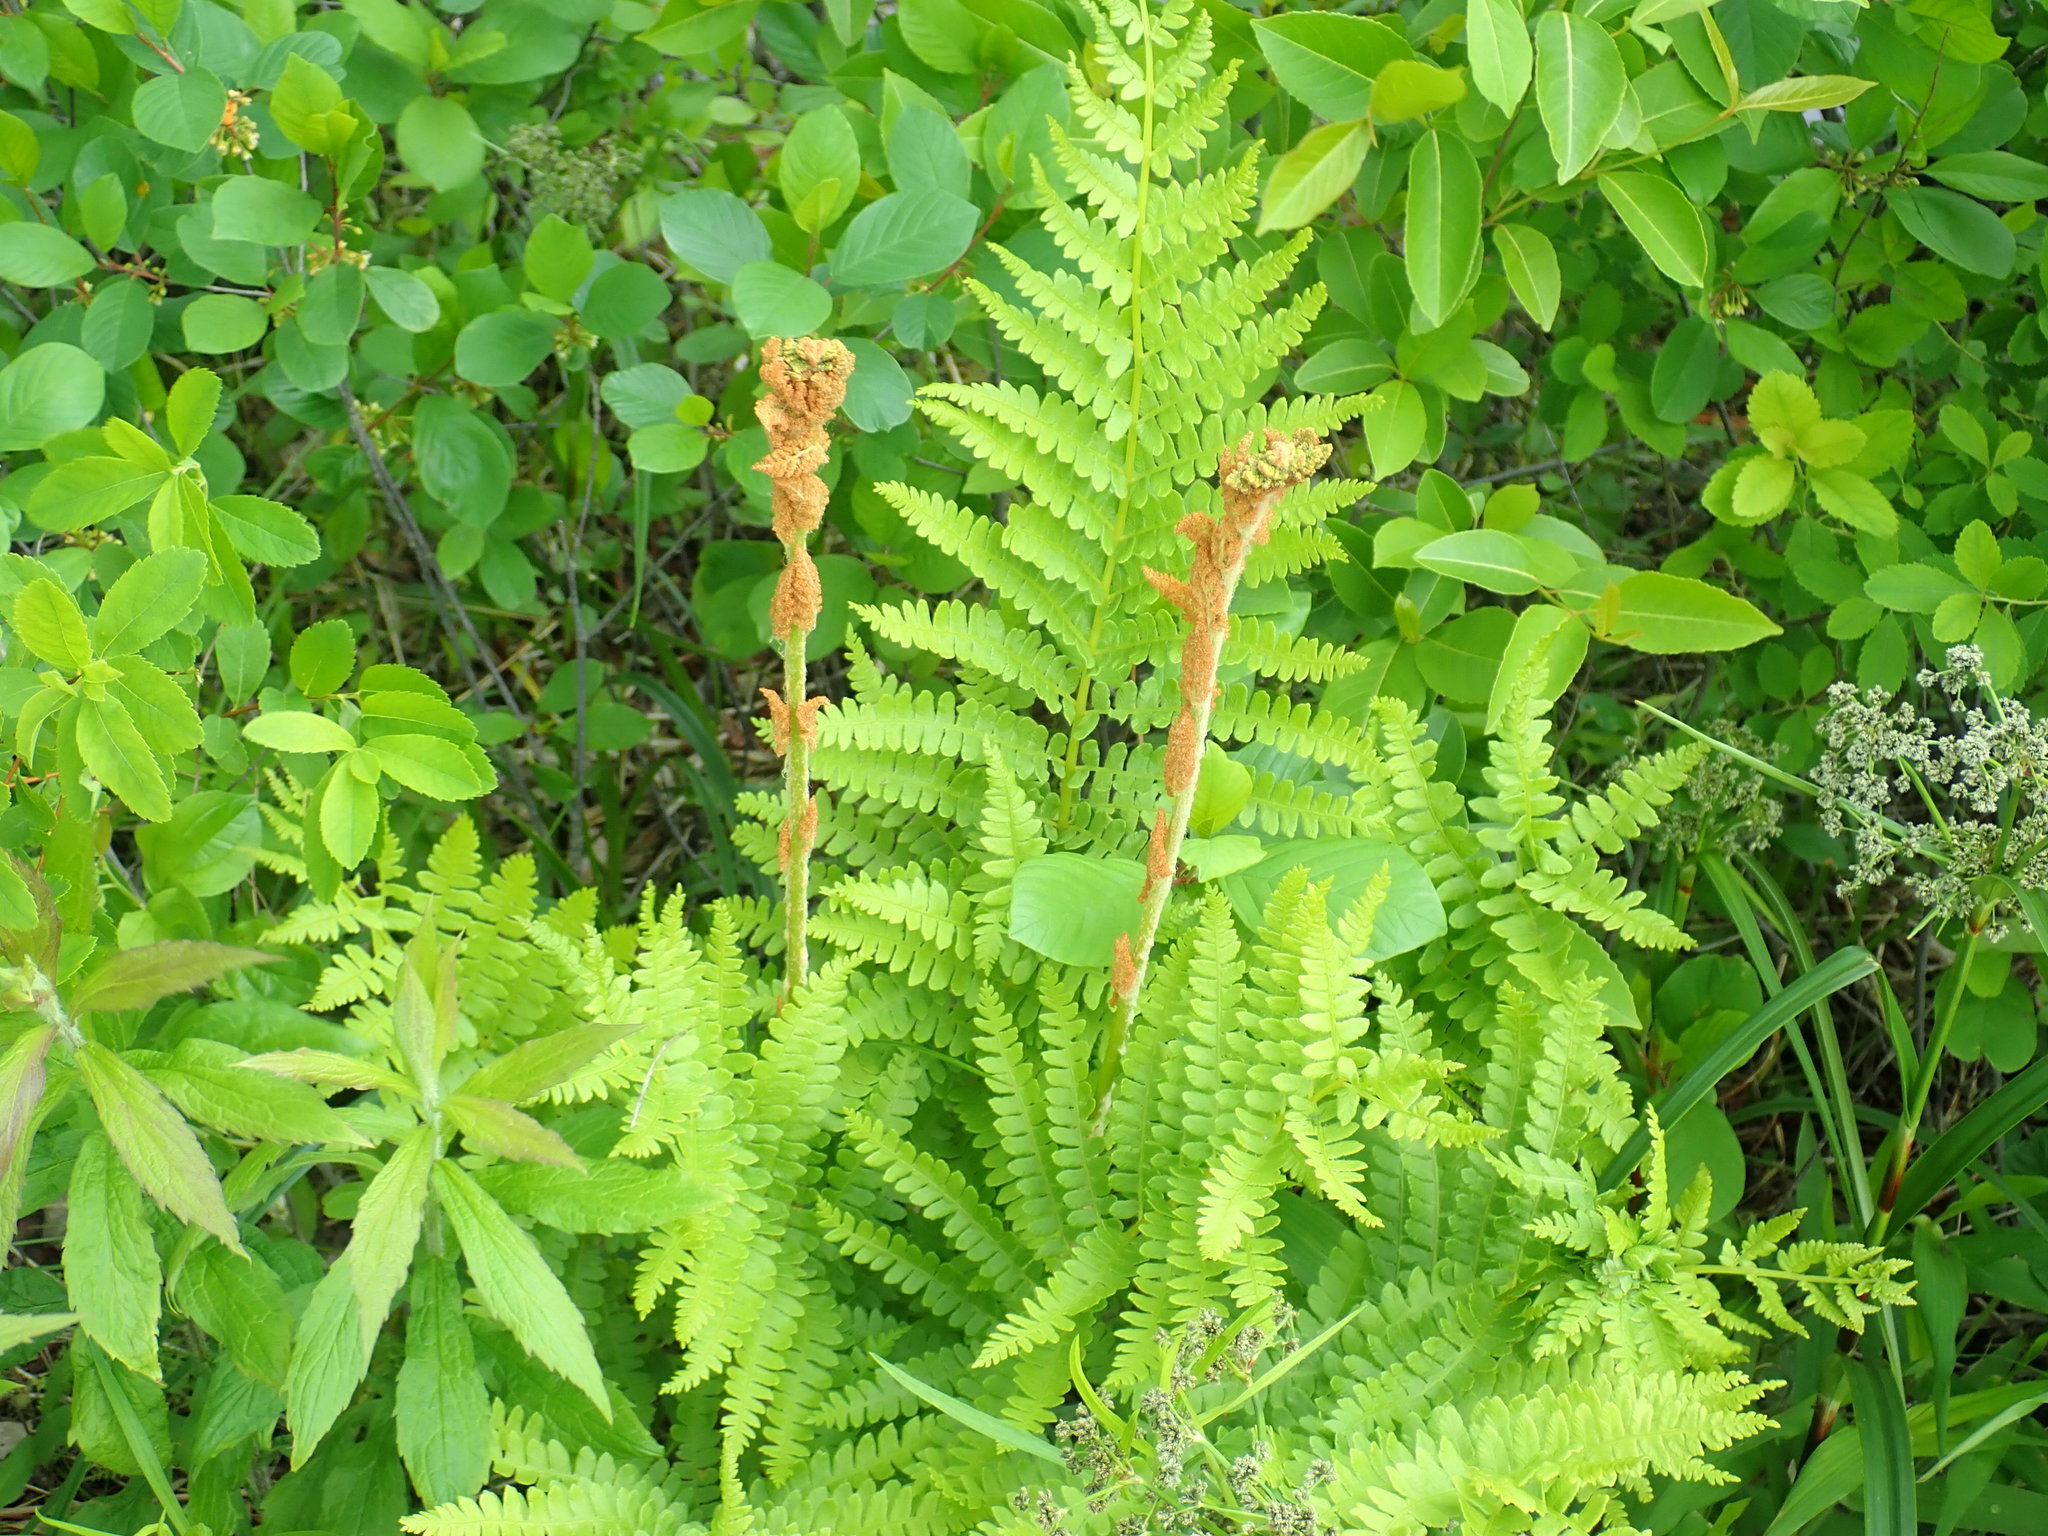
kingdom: Plantae
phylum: Tracheophyta
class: Polypodiopsida
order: Osmundales
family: Osmundaceae
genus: Osmundastrum
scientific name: Osmundastrum cinnamomeum
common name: Cinnamon fern
